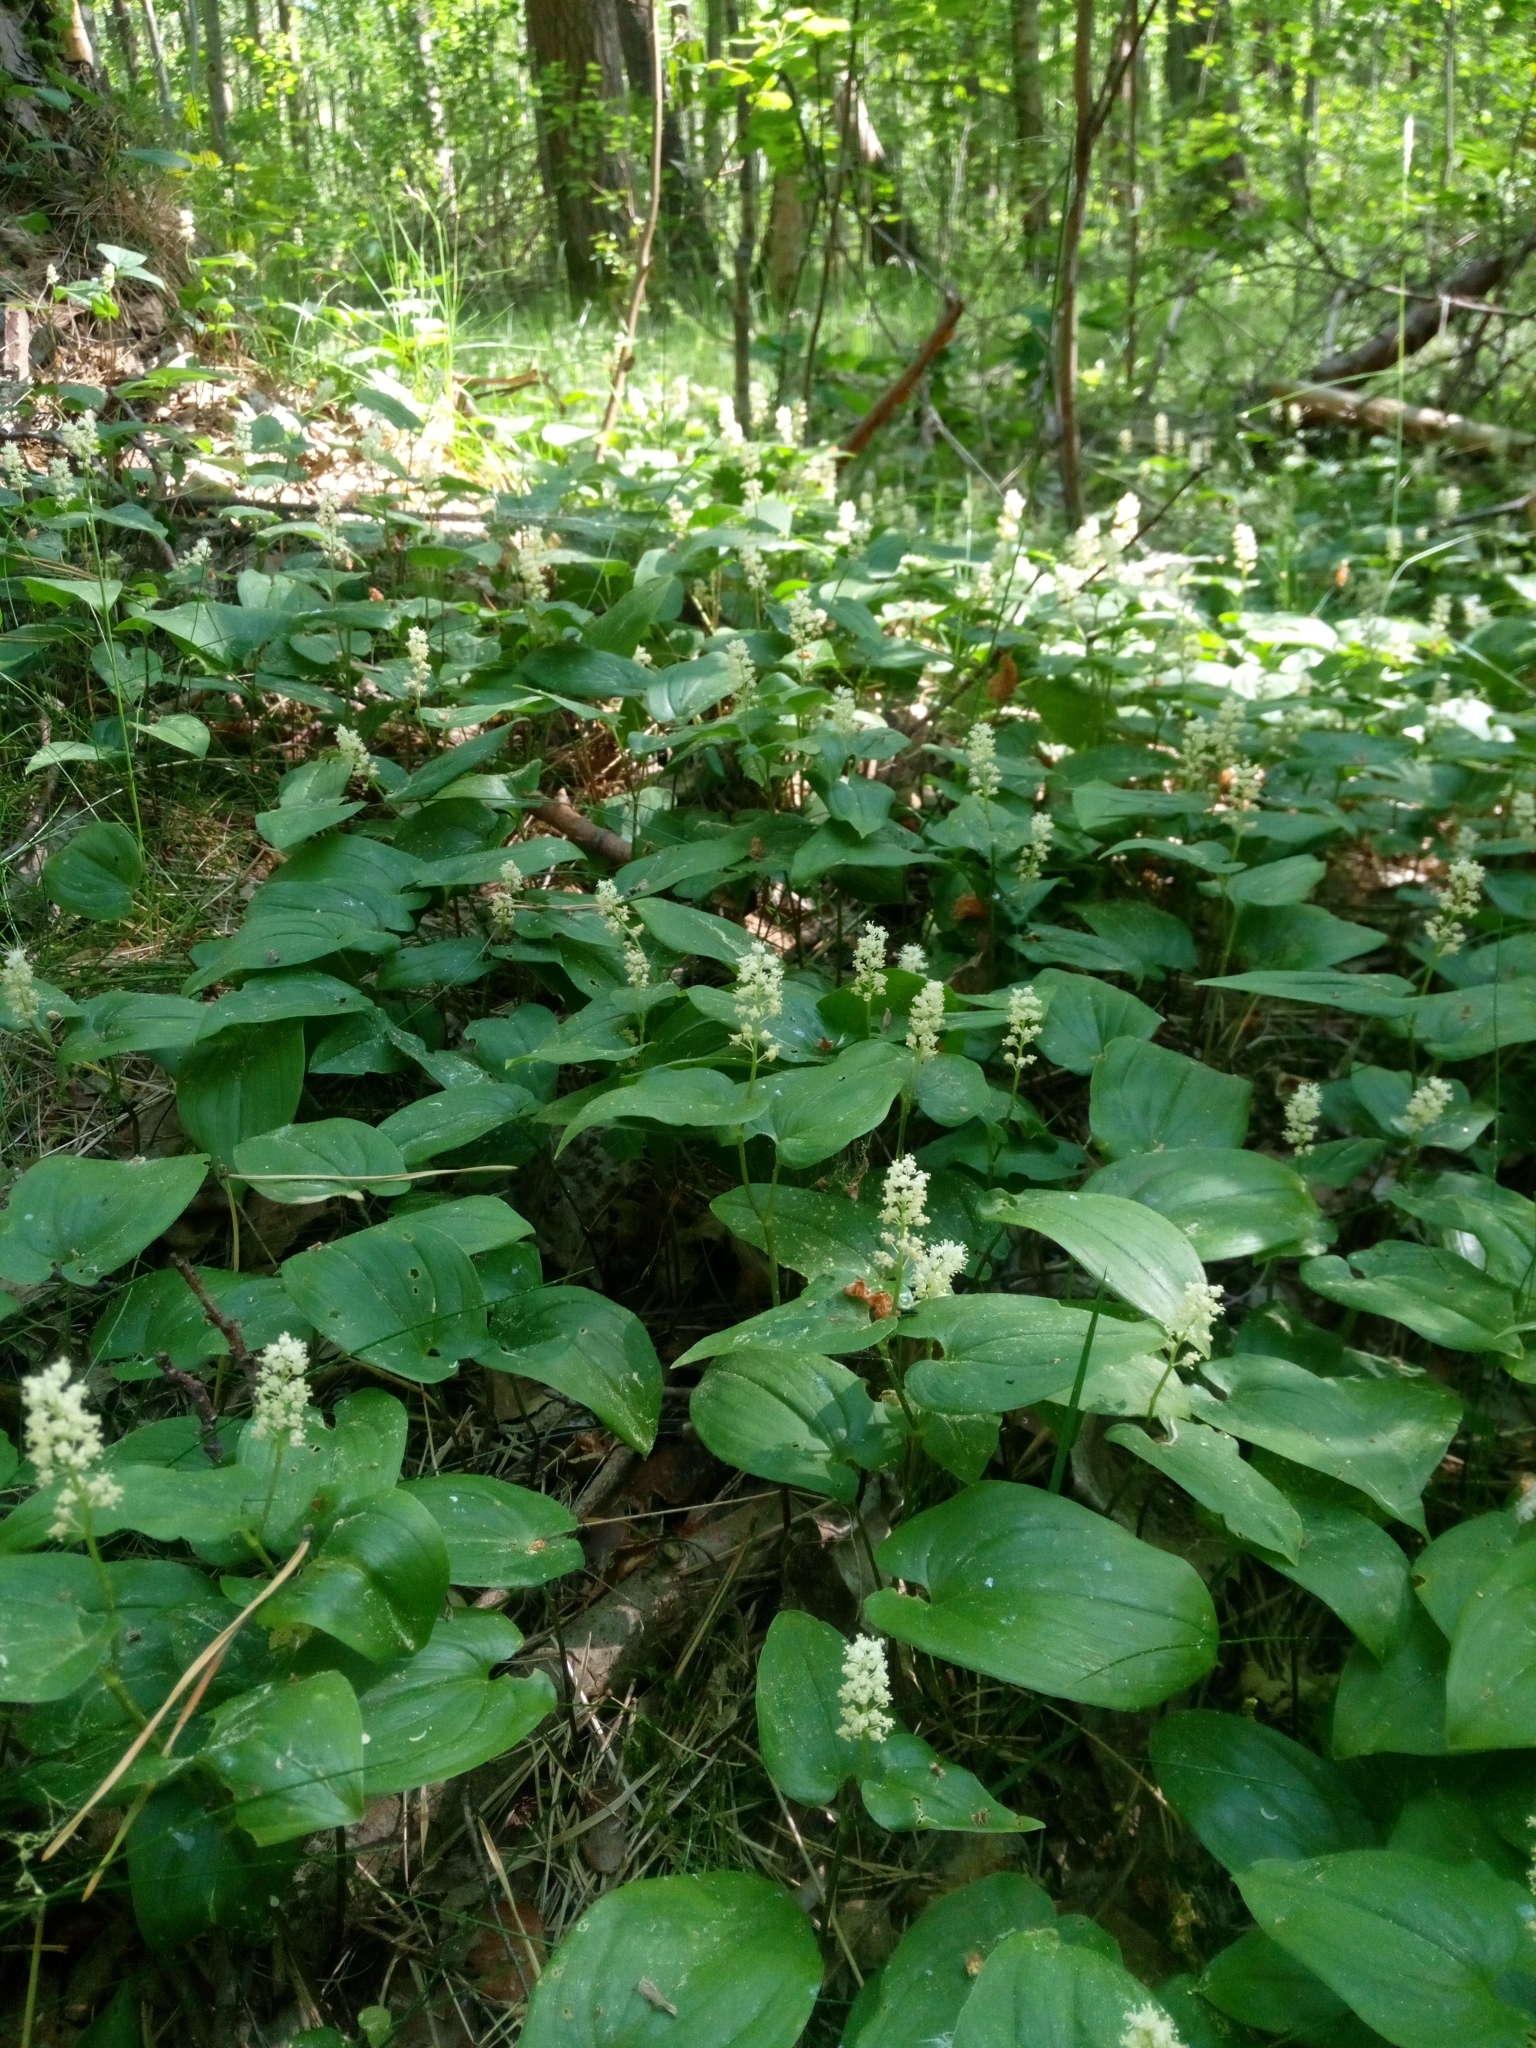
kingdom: Plantae
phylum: Tracheophyta
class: Liliopsida
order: Asparagales
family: Asparagaceae
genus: Maianthemum
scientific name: Maianthemum bifolium
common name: May lily
